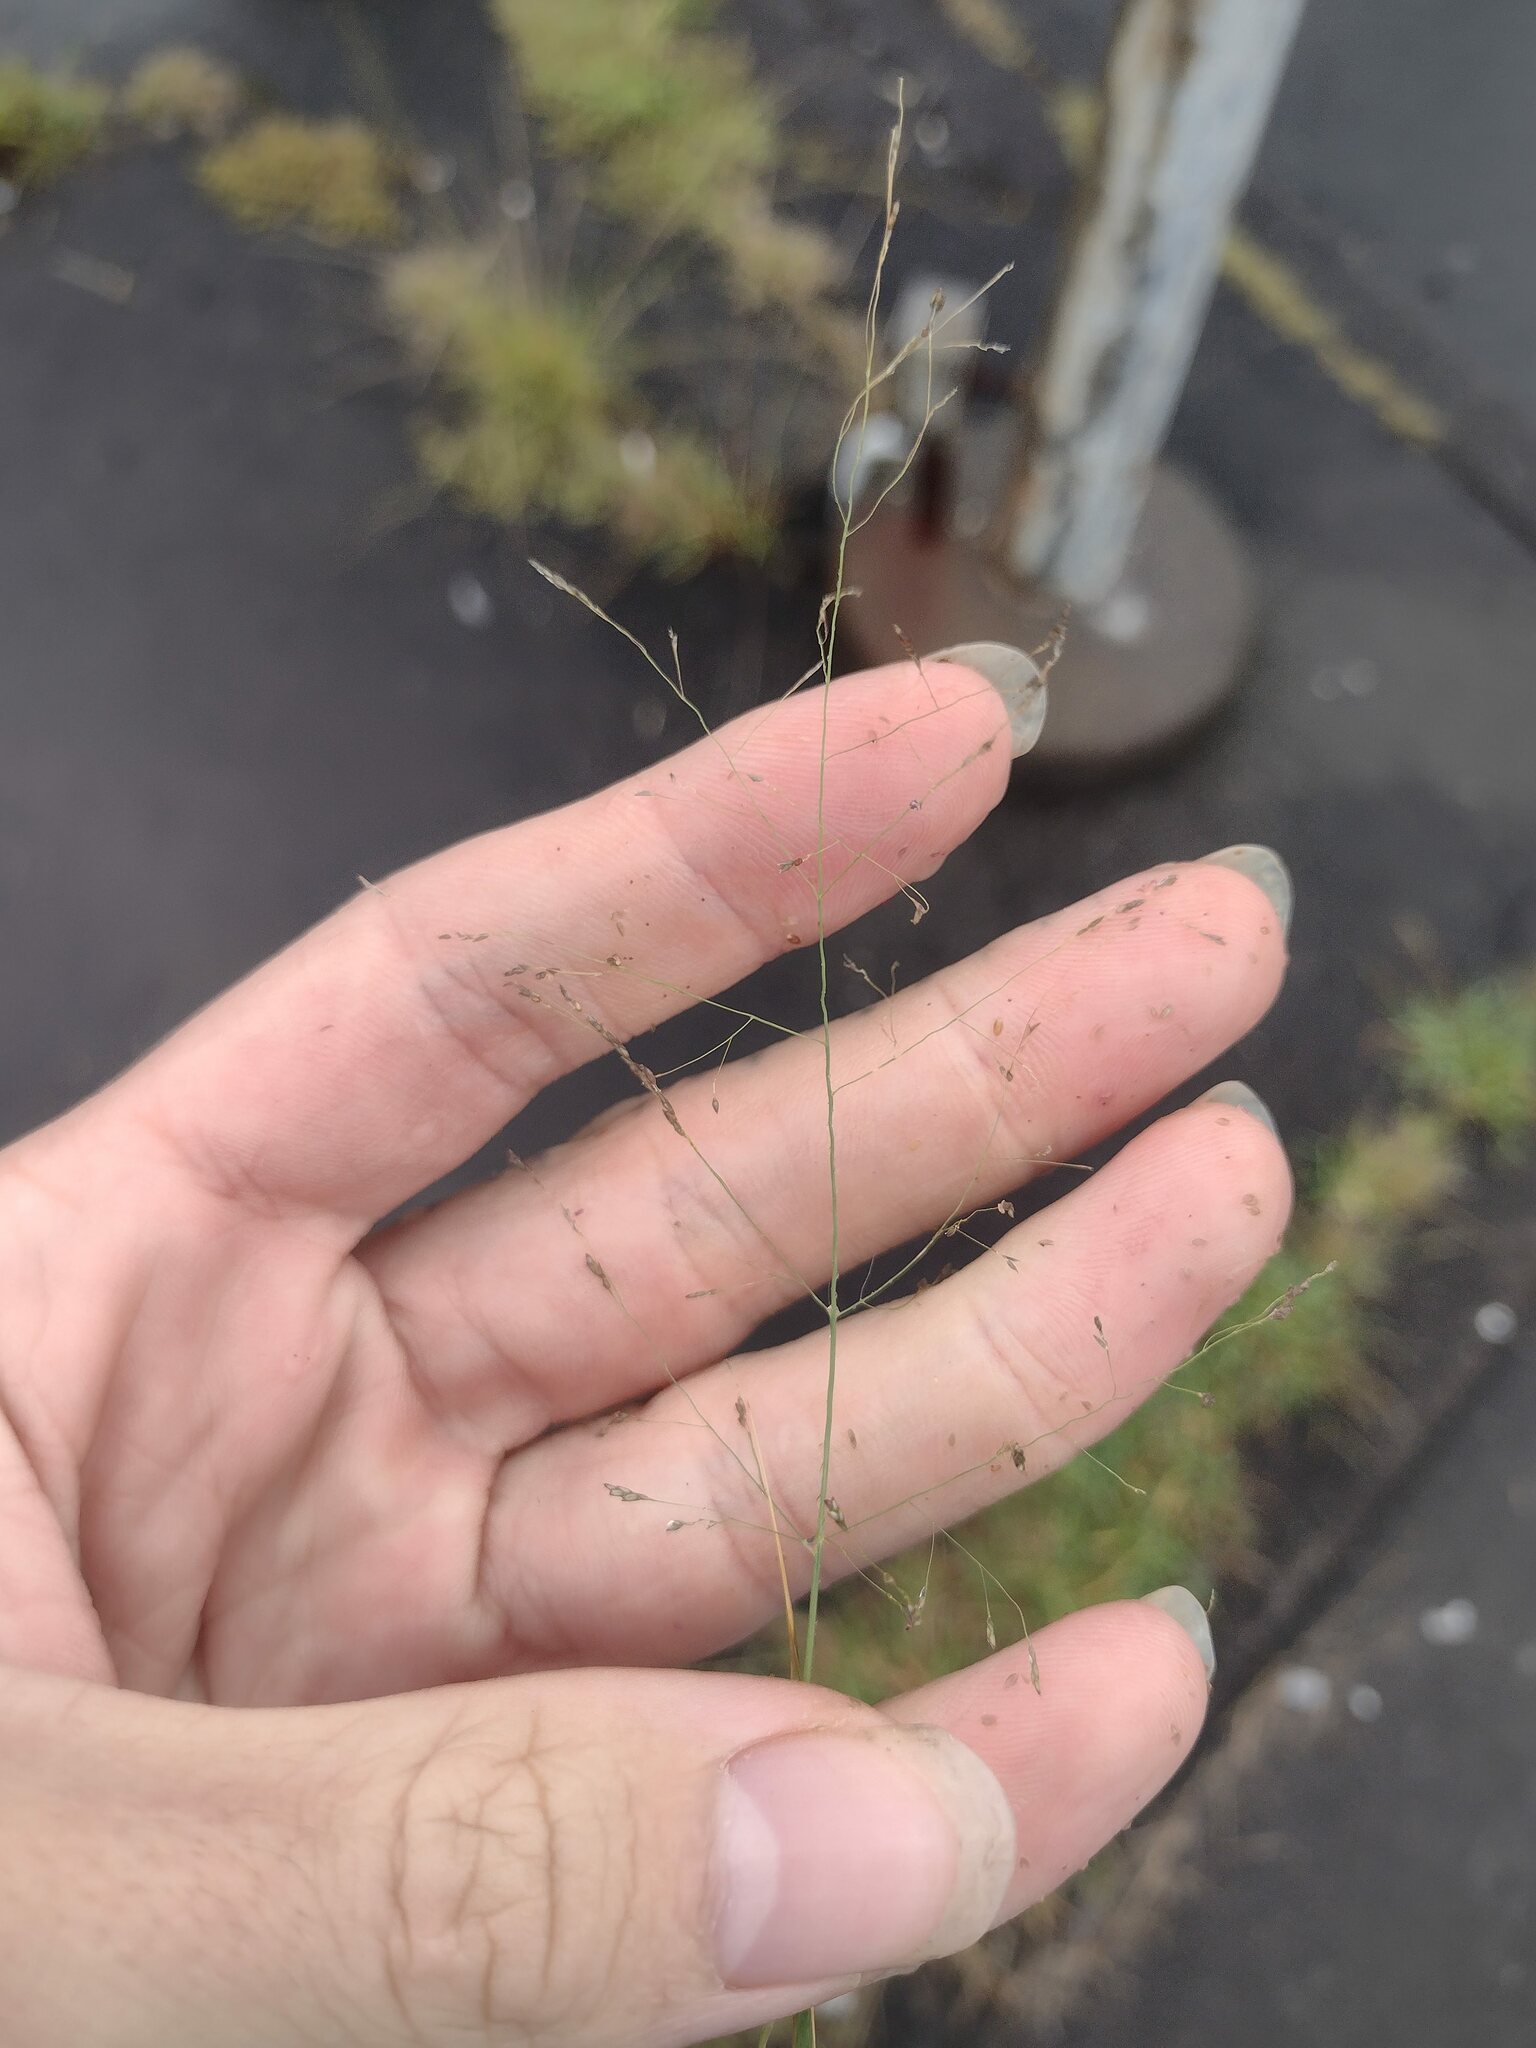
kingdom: Plantae
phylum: Tracheophyta
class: Liliopsida
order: Poales
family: Poaceae
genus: Eragrostis
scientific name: Eragrostis pilosa
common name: Indian lovegrass
